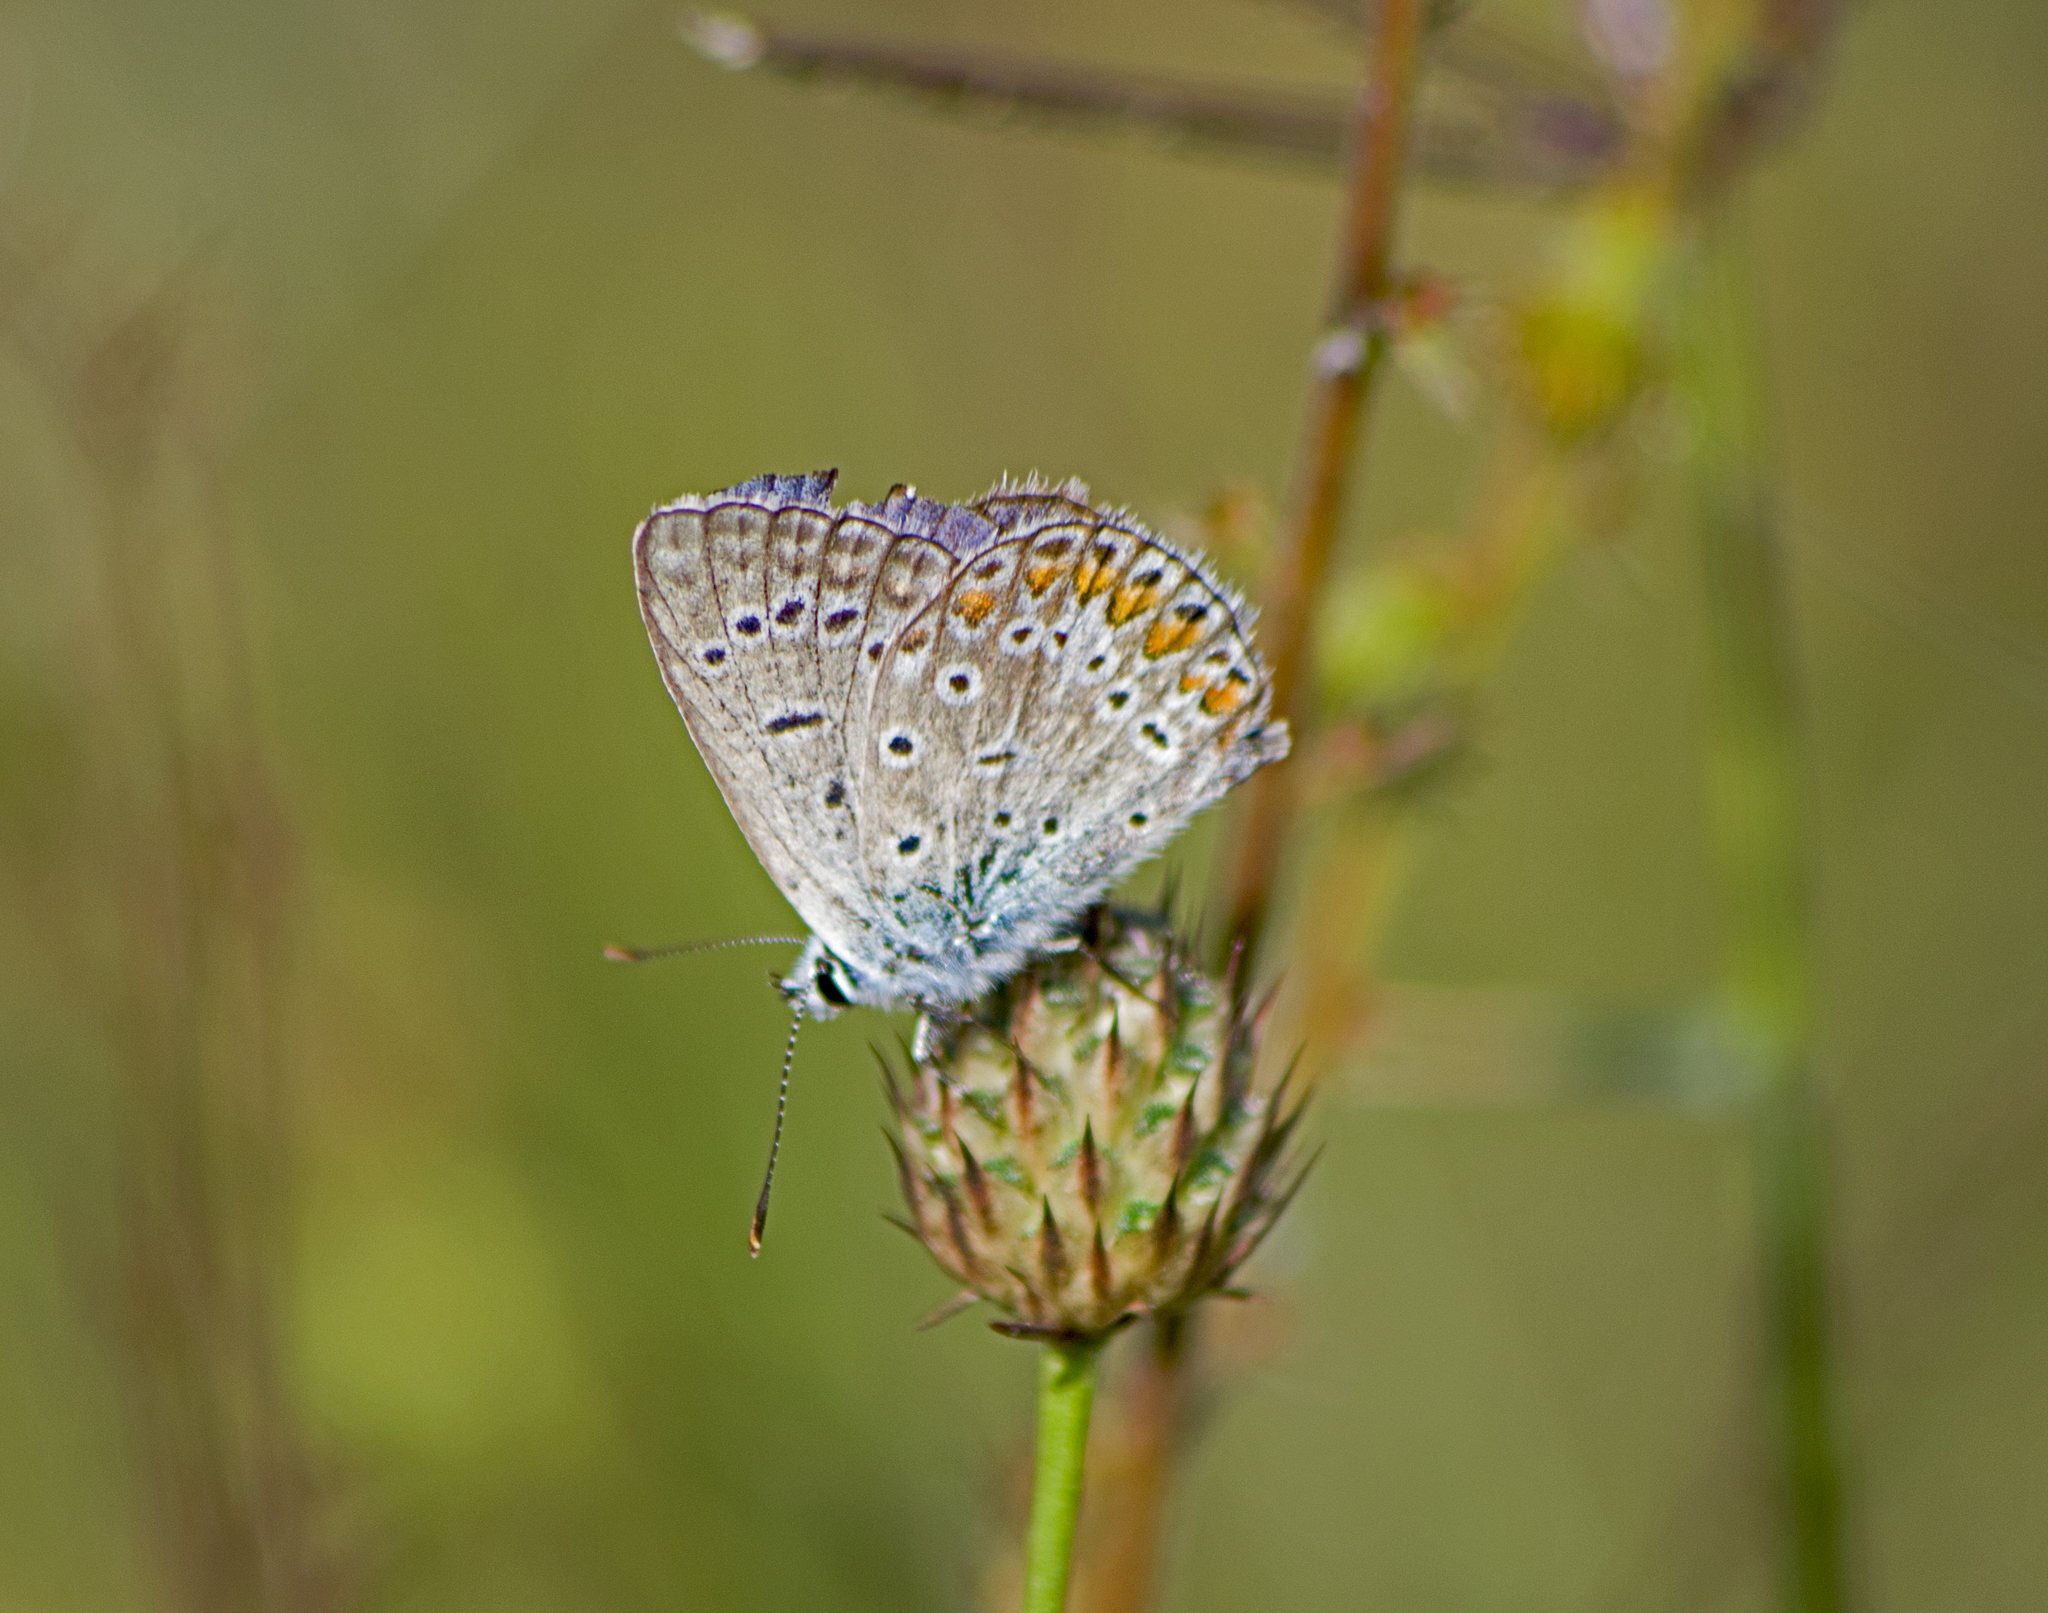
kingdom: Animalia
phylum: Arthropoda
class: Insecta
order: Lepidoptera
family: Lycaenidae
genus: Polyommatus
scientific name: Polyommatus icarus
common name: Common blue
